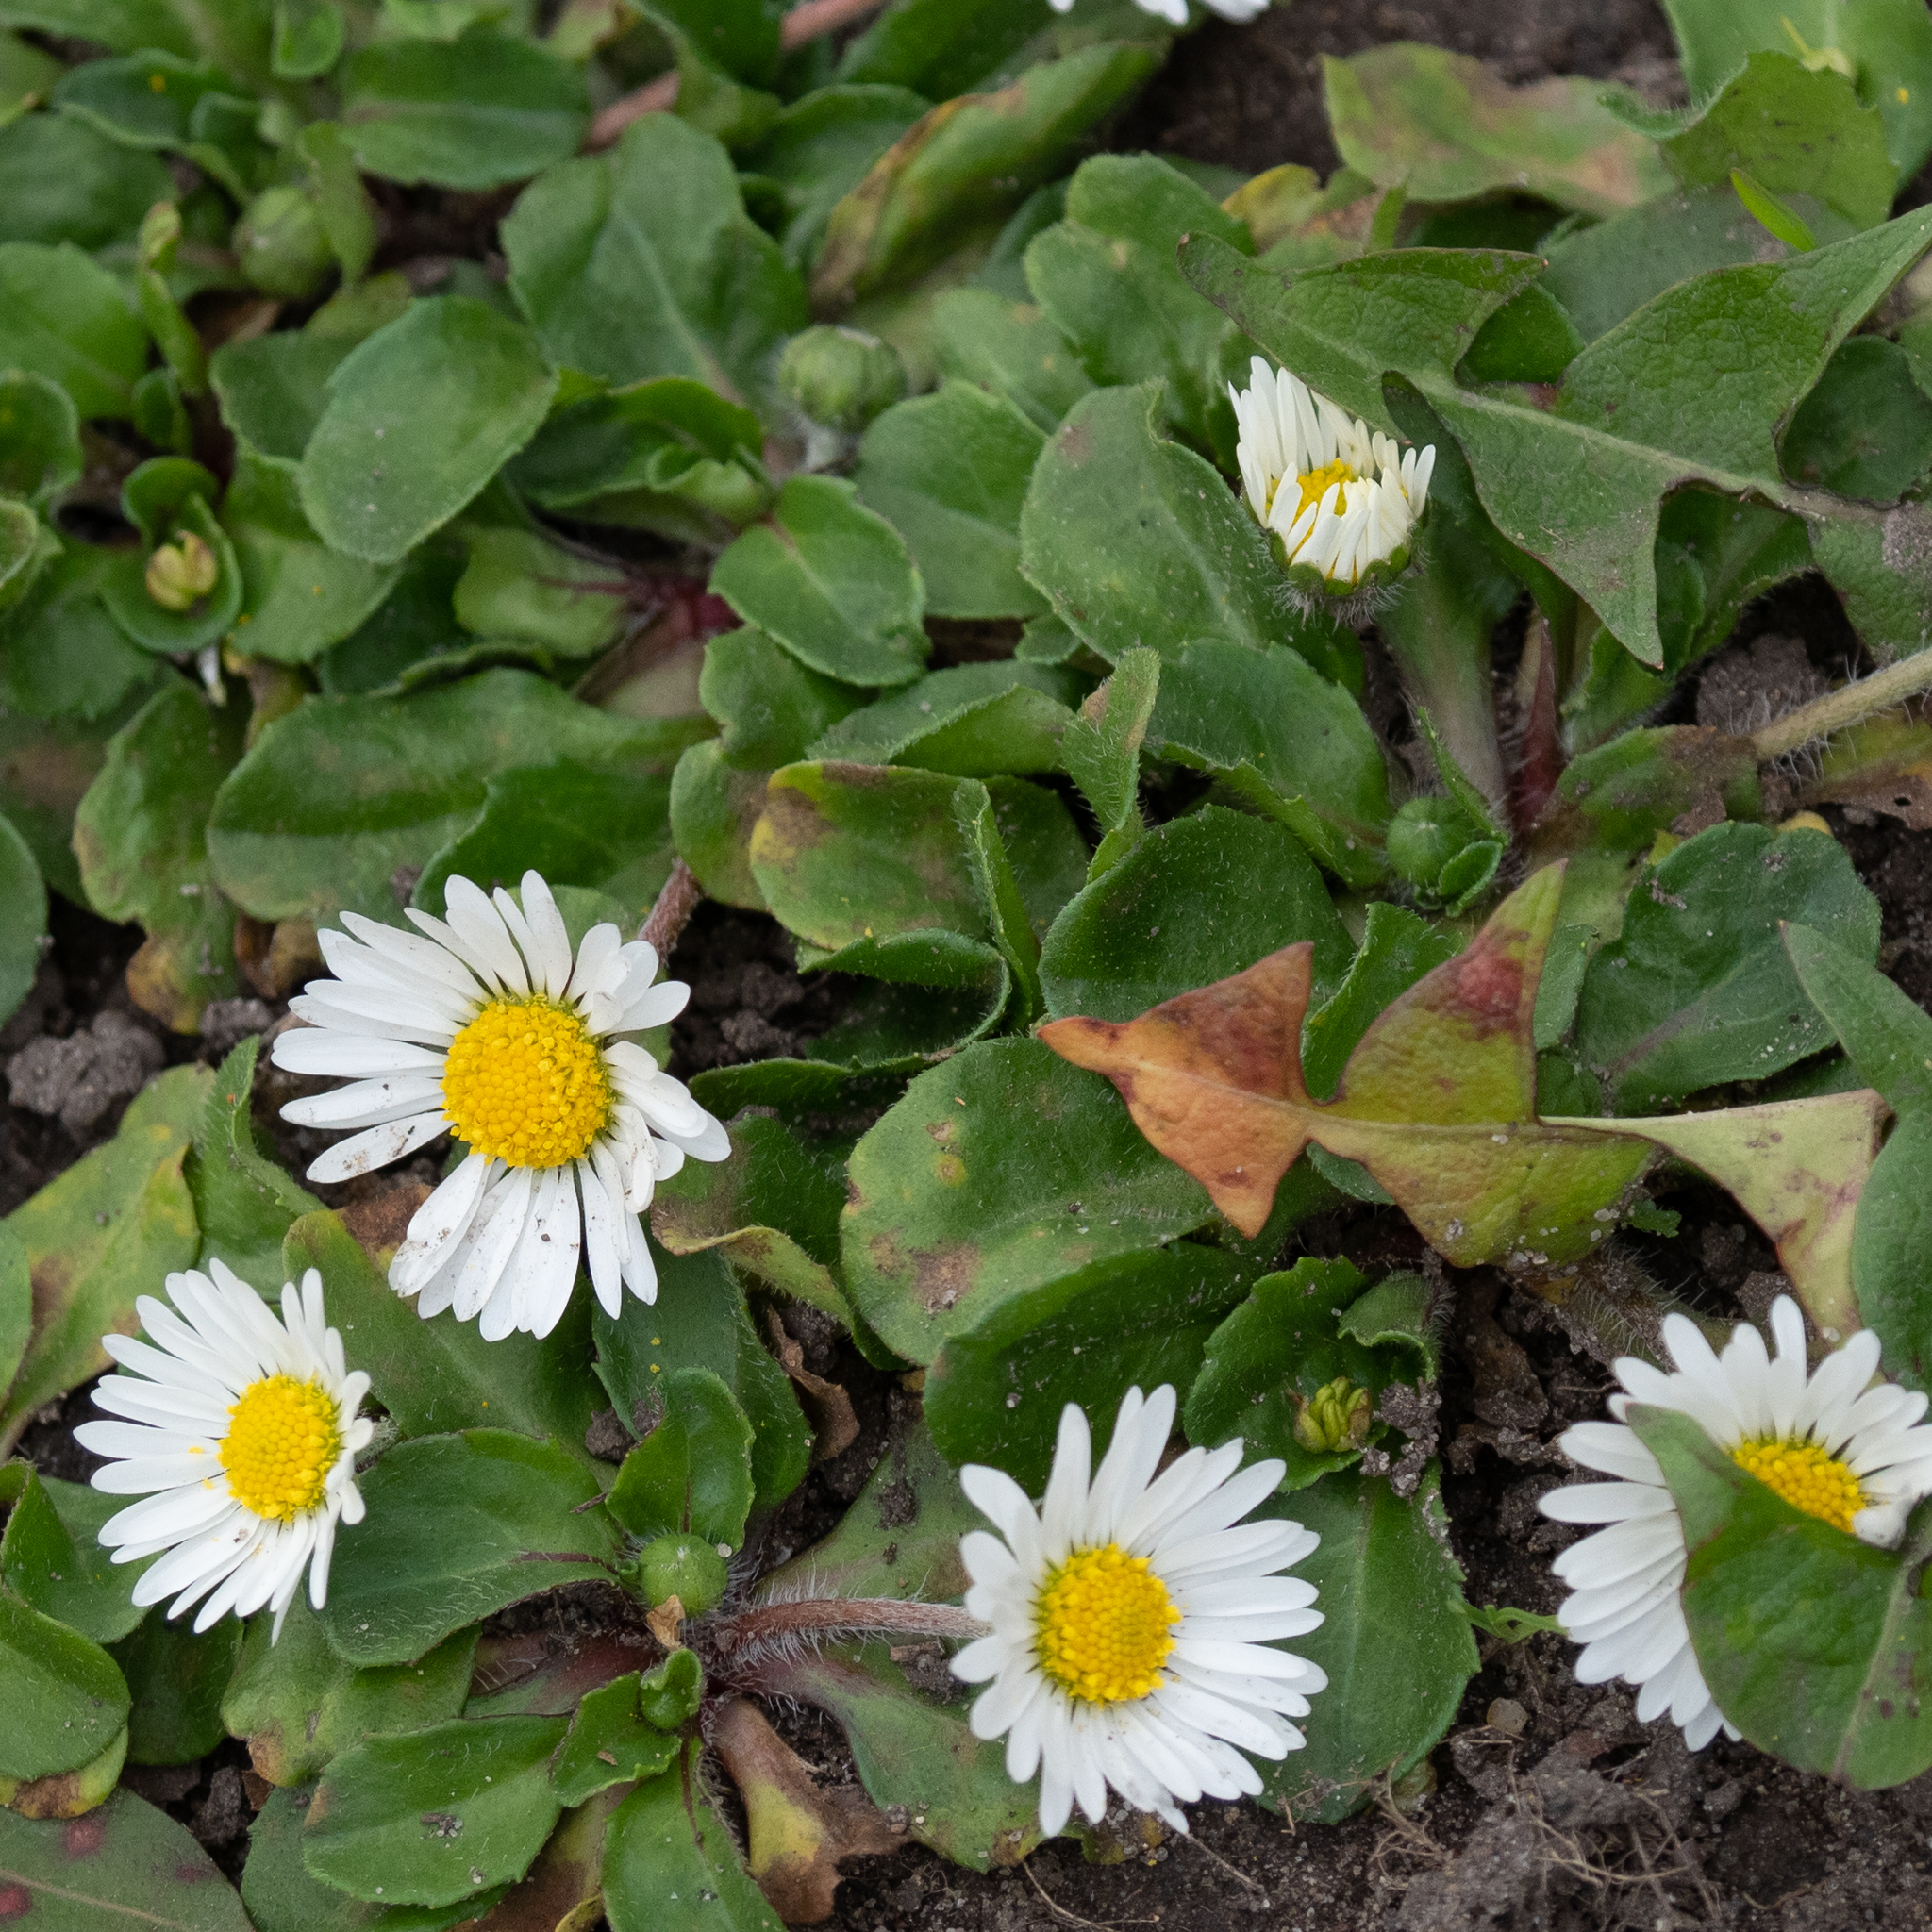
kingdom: Plantae
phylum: Tracheophyta
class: Magnoliopsida
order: Asterales
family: Asteraceae
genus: Bellis
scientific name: Bellis perennis
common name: Lawndaisy
